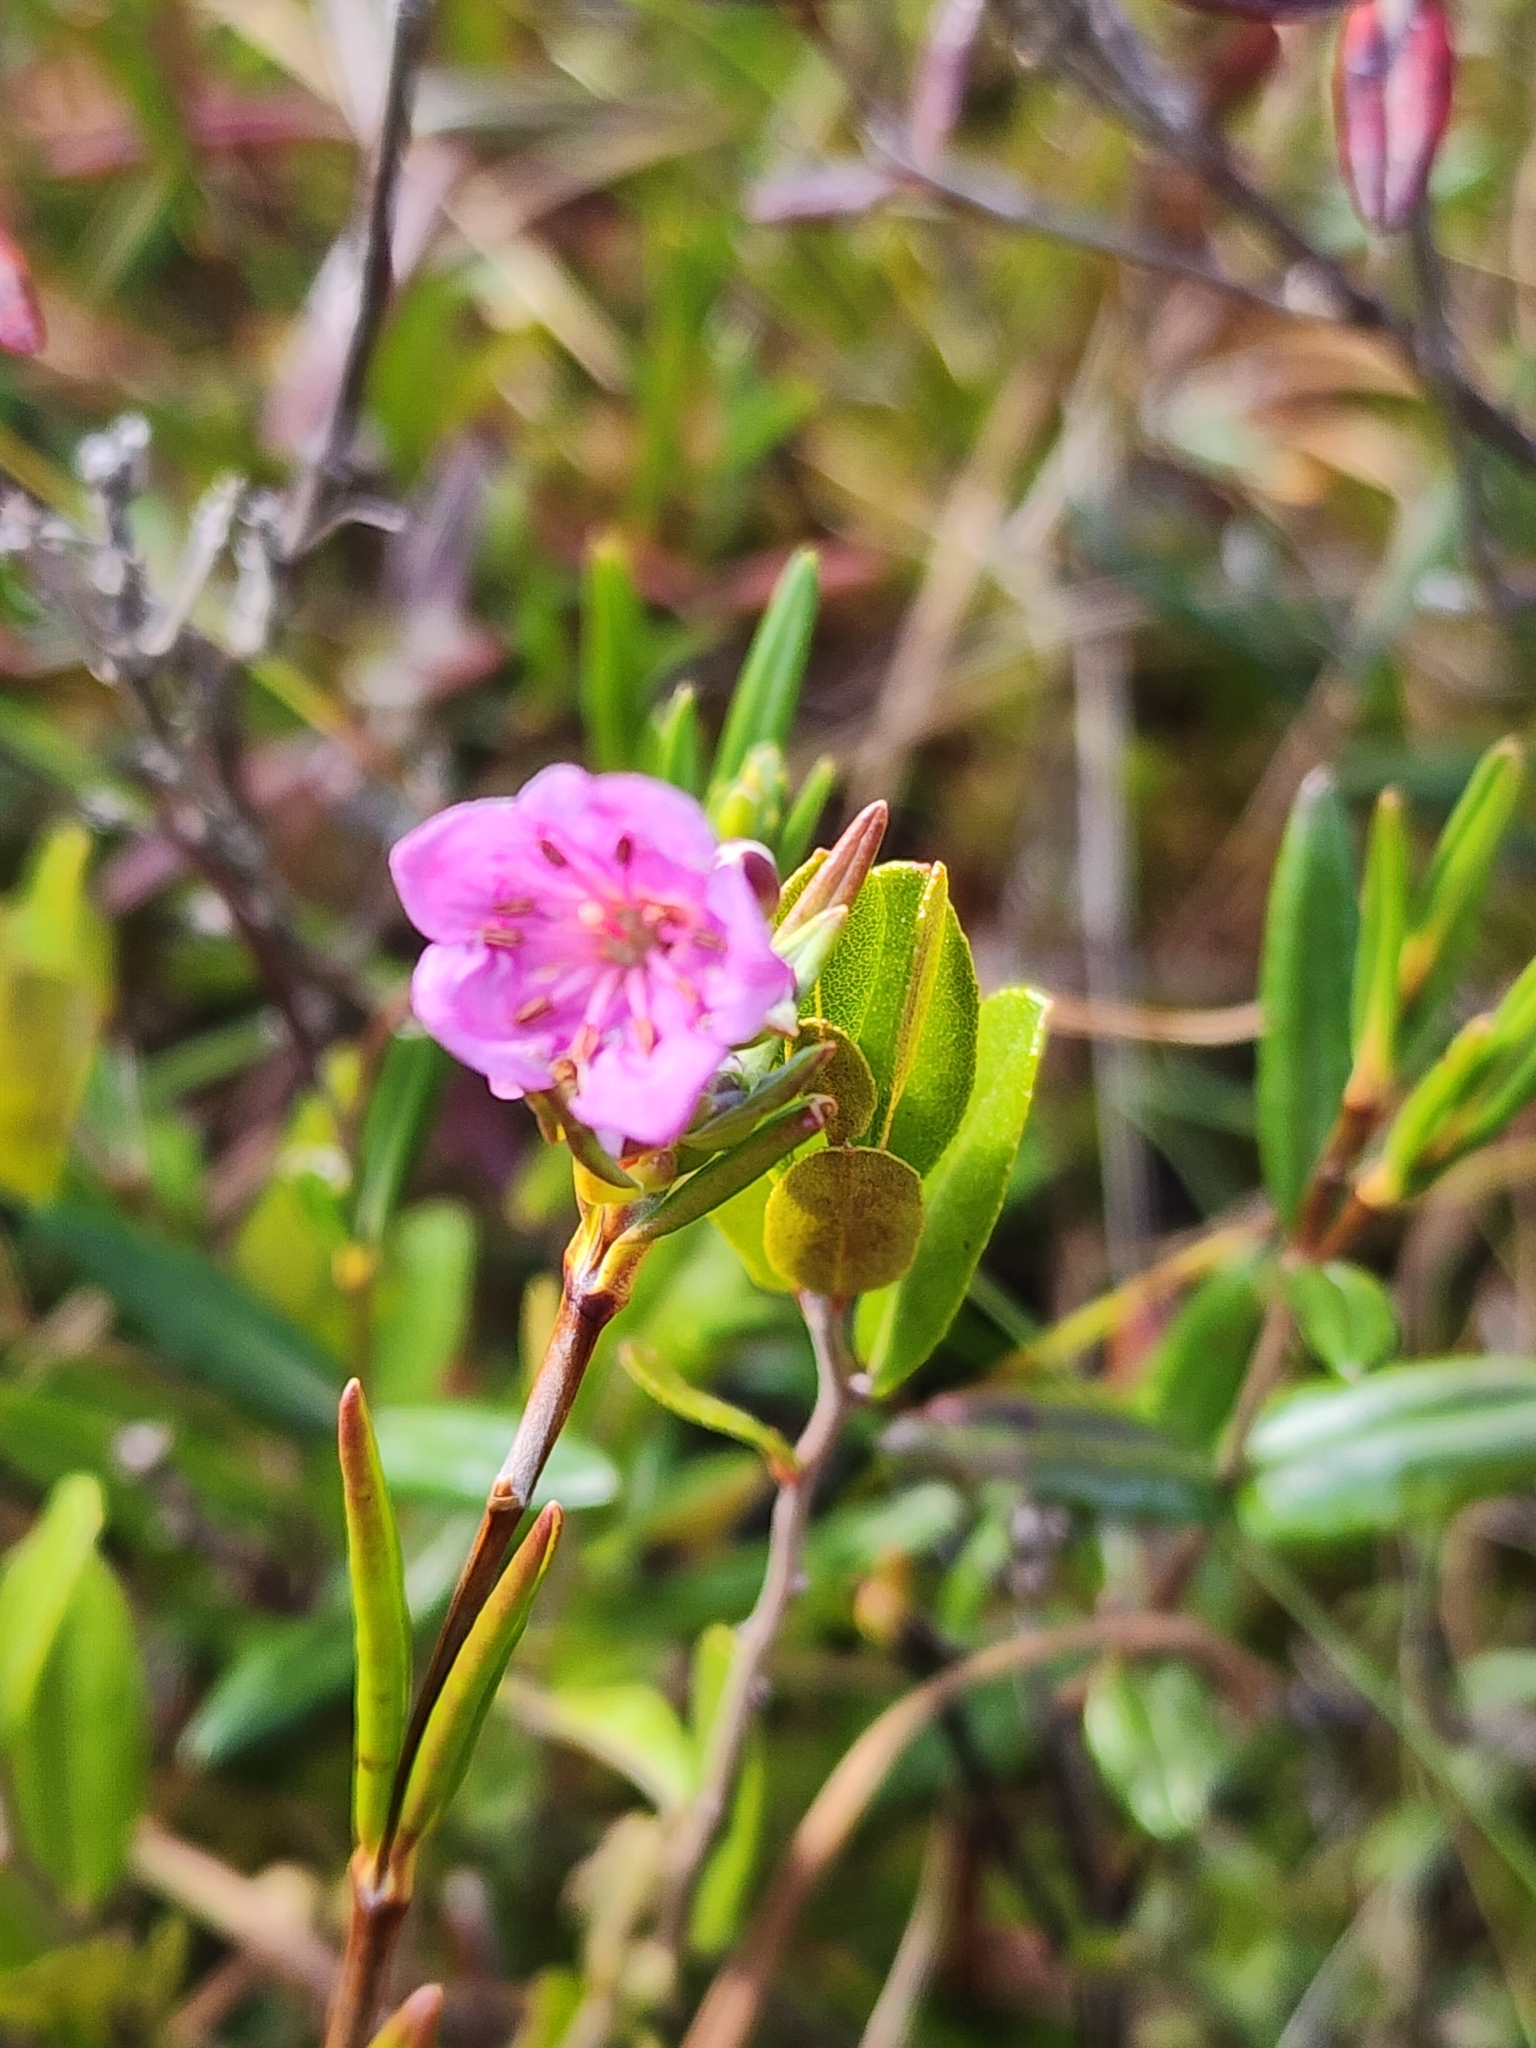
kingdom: Plantae
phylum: Tracheophyta
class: Magnoliopsida
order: Ericales
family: Ericaceae
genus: Kalmia
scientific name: Kalmia polifolia
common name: Bog-laurel
